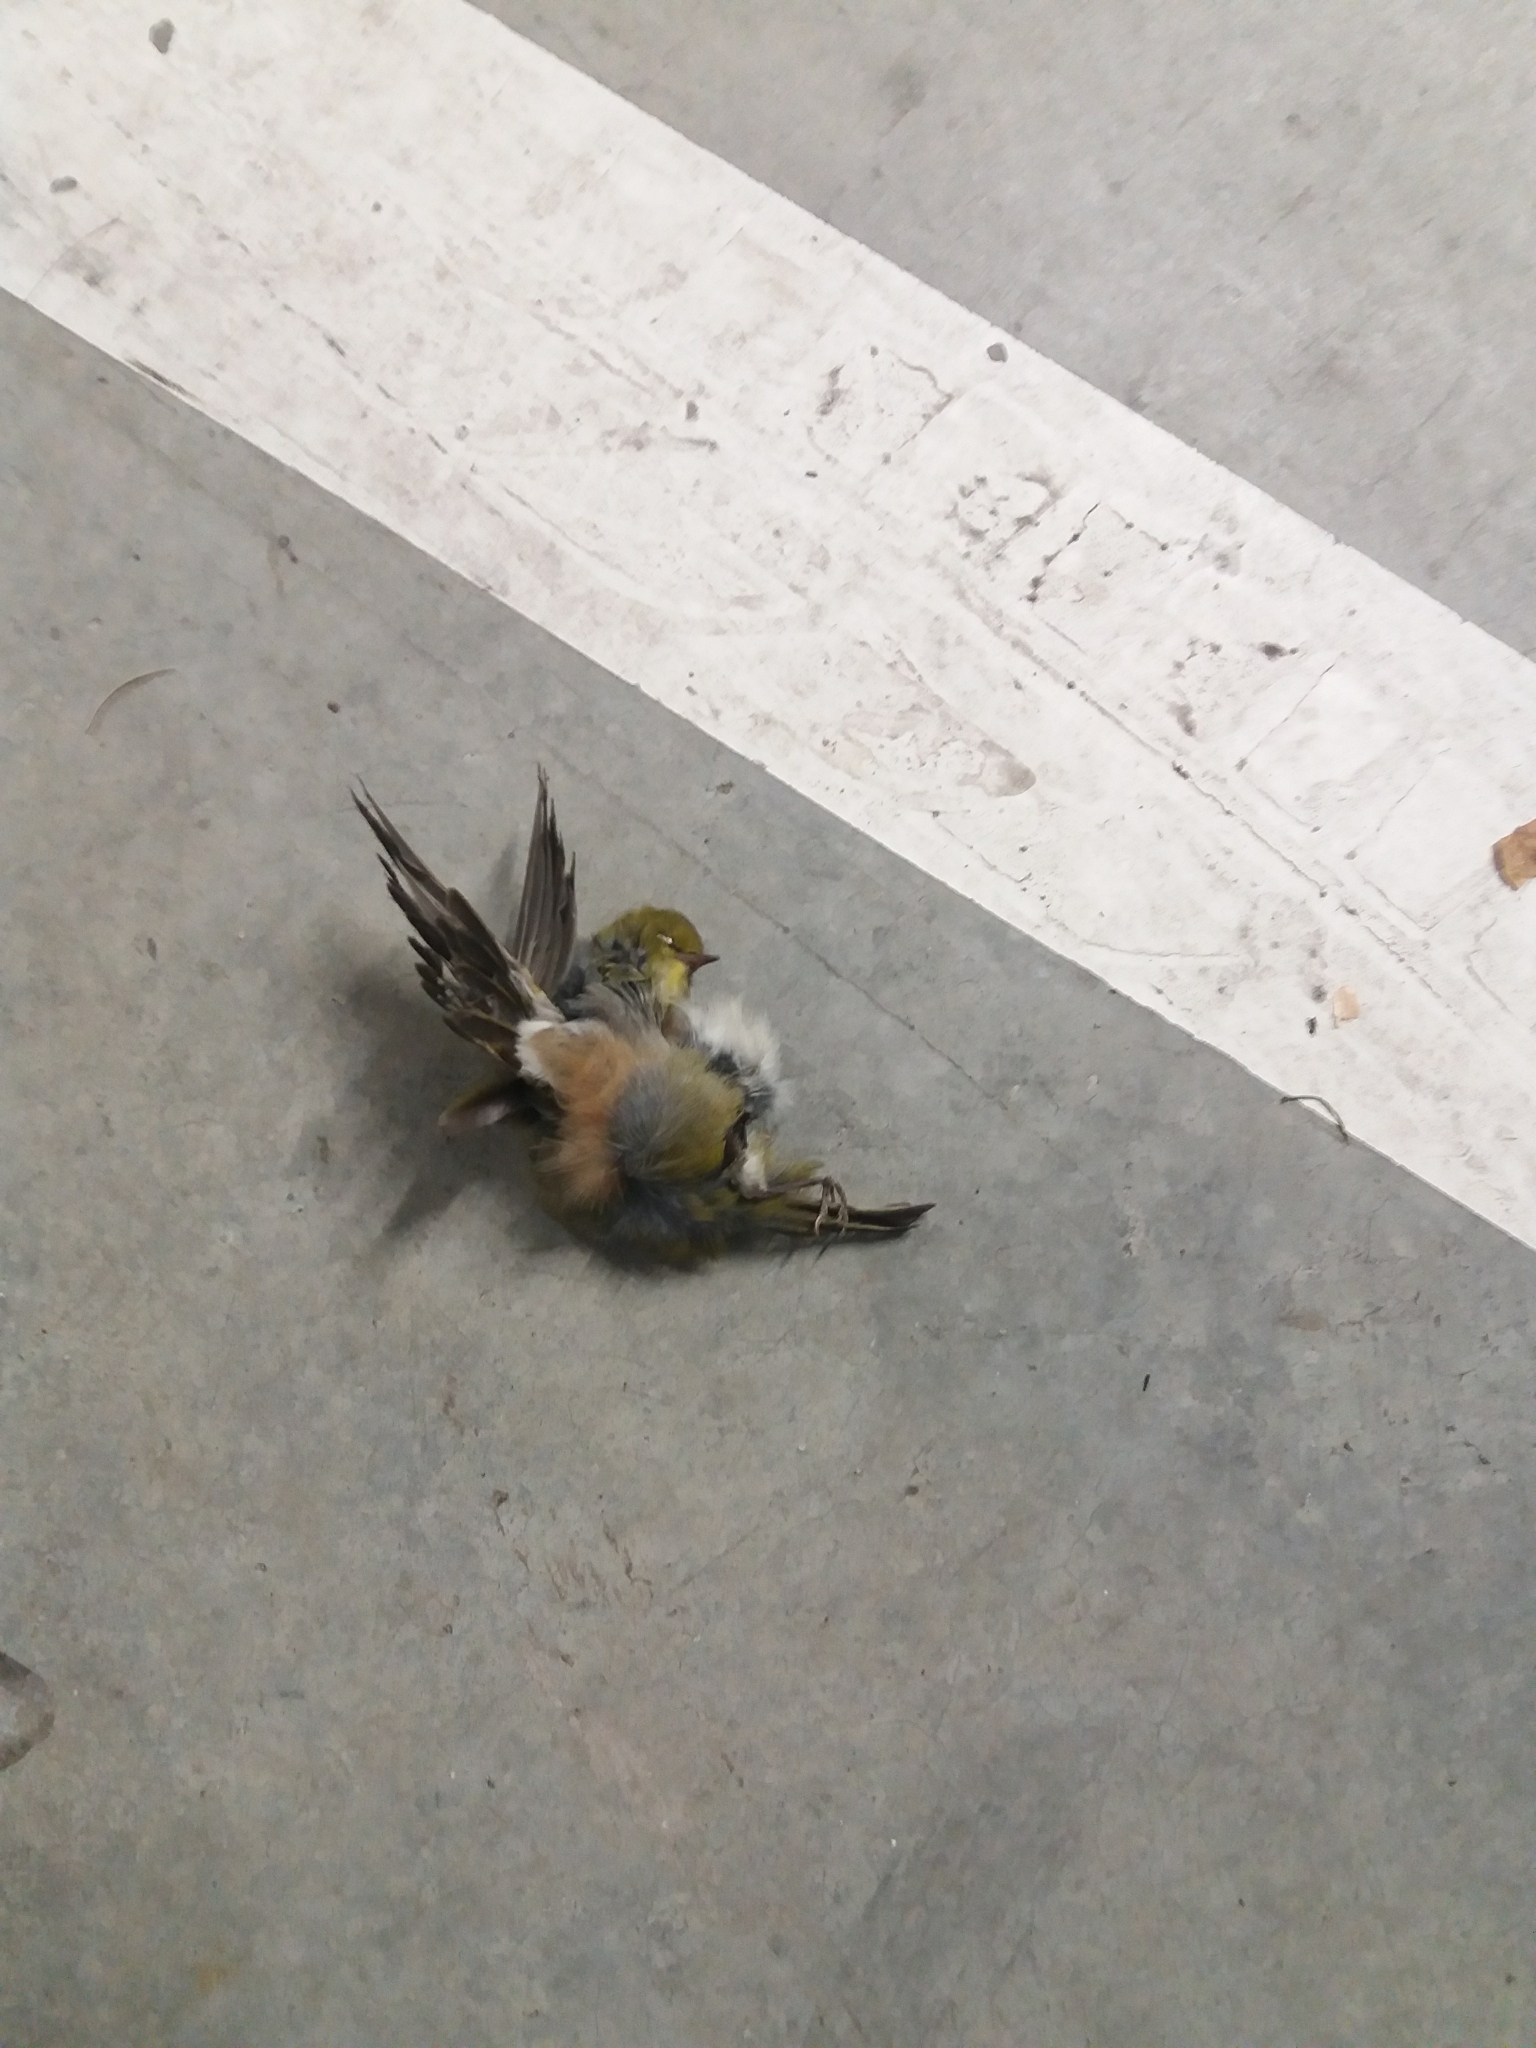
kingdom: Animalia
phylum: Chordata
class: Aves
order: Passeriformes
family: Zosteropidae
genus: Zosterops
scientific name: Zosterops lateralis
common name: Silvereye
